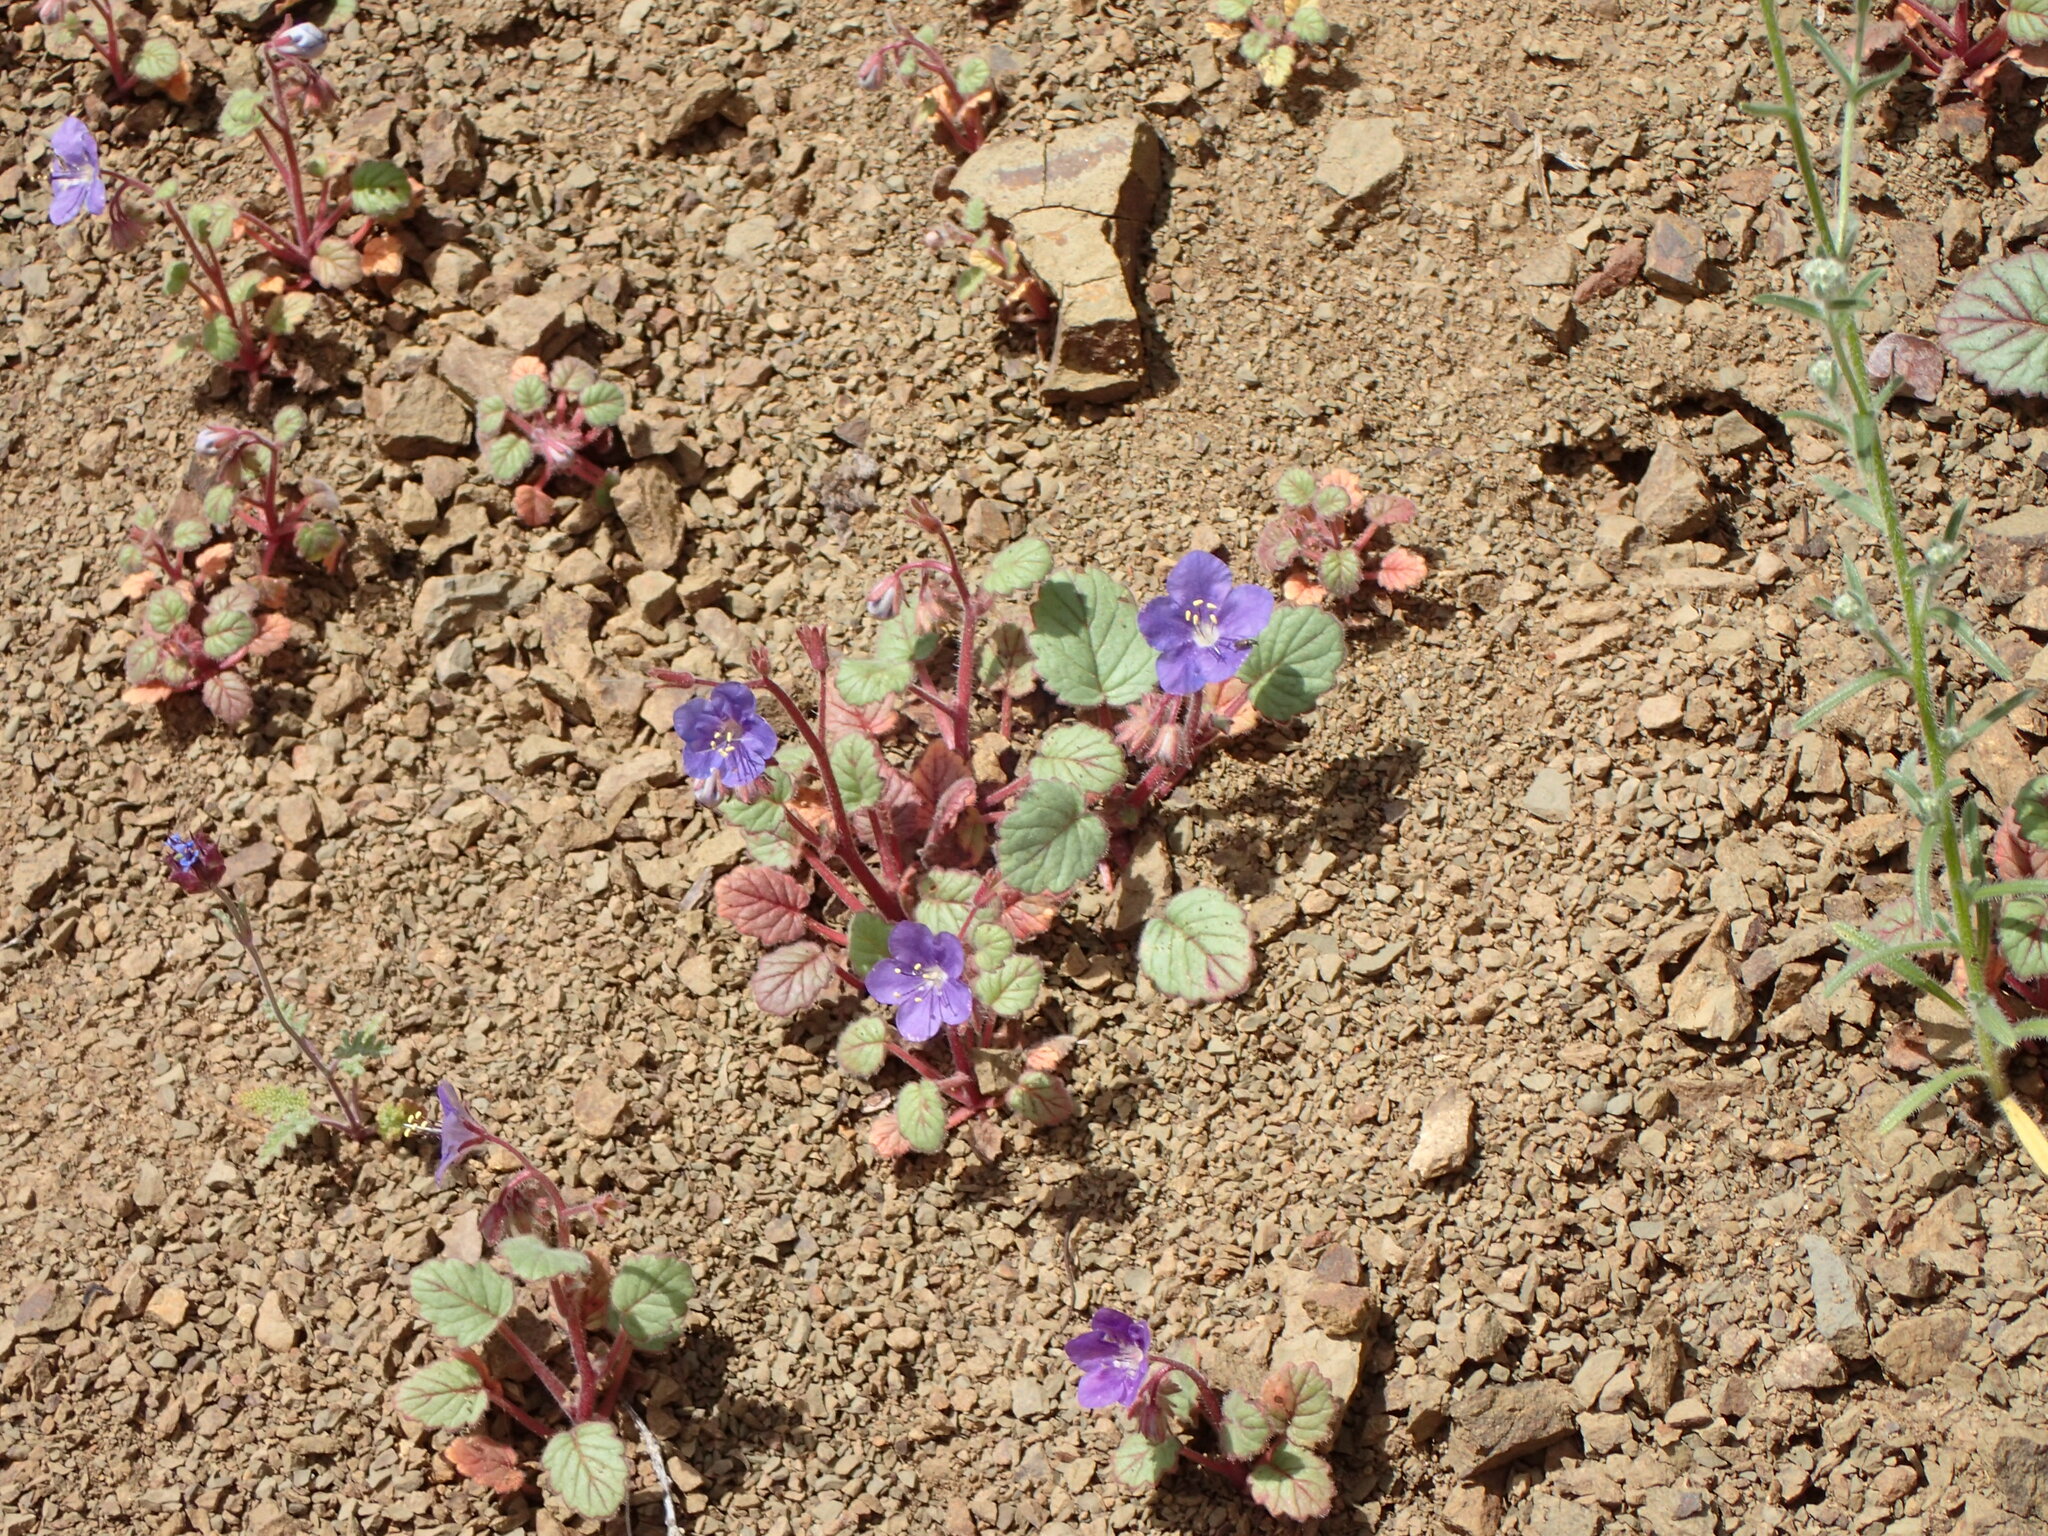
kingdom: Plantae
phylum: Tracheophyta
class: Magnoliopsida
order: Boraginales
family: Hydrophyllaceae
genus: Phacelia
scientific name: Phacelia longipes
